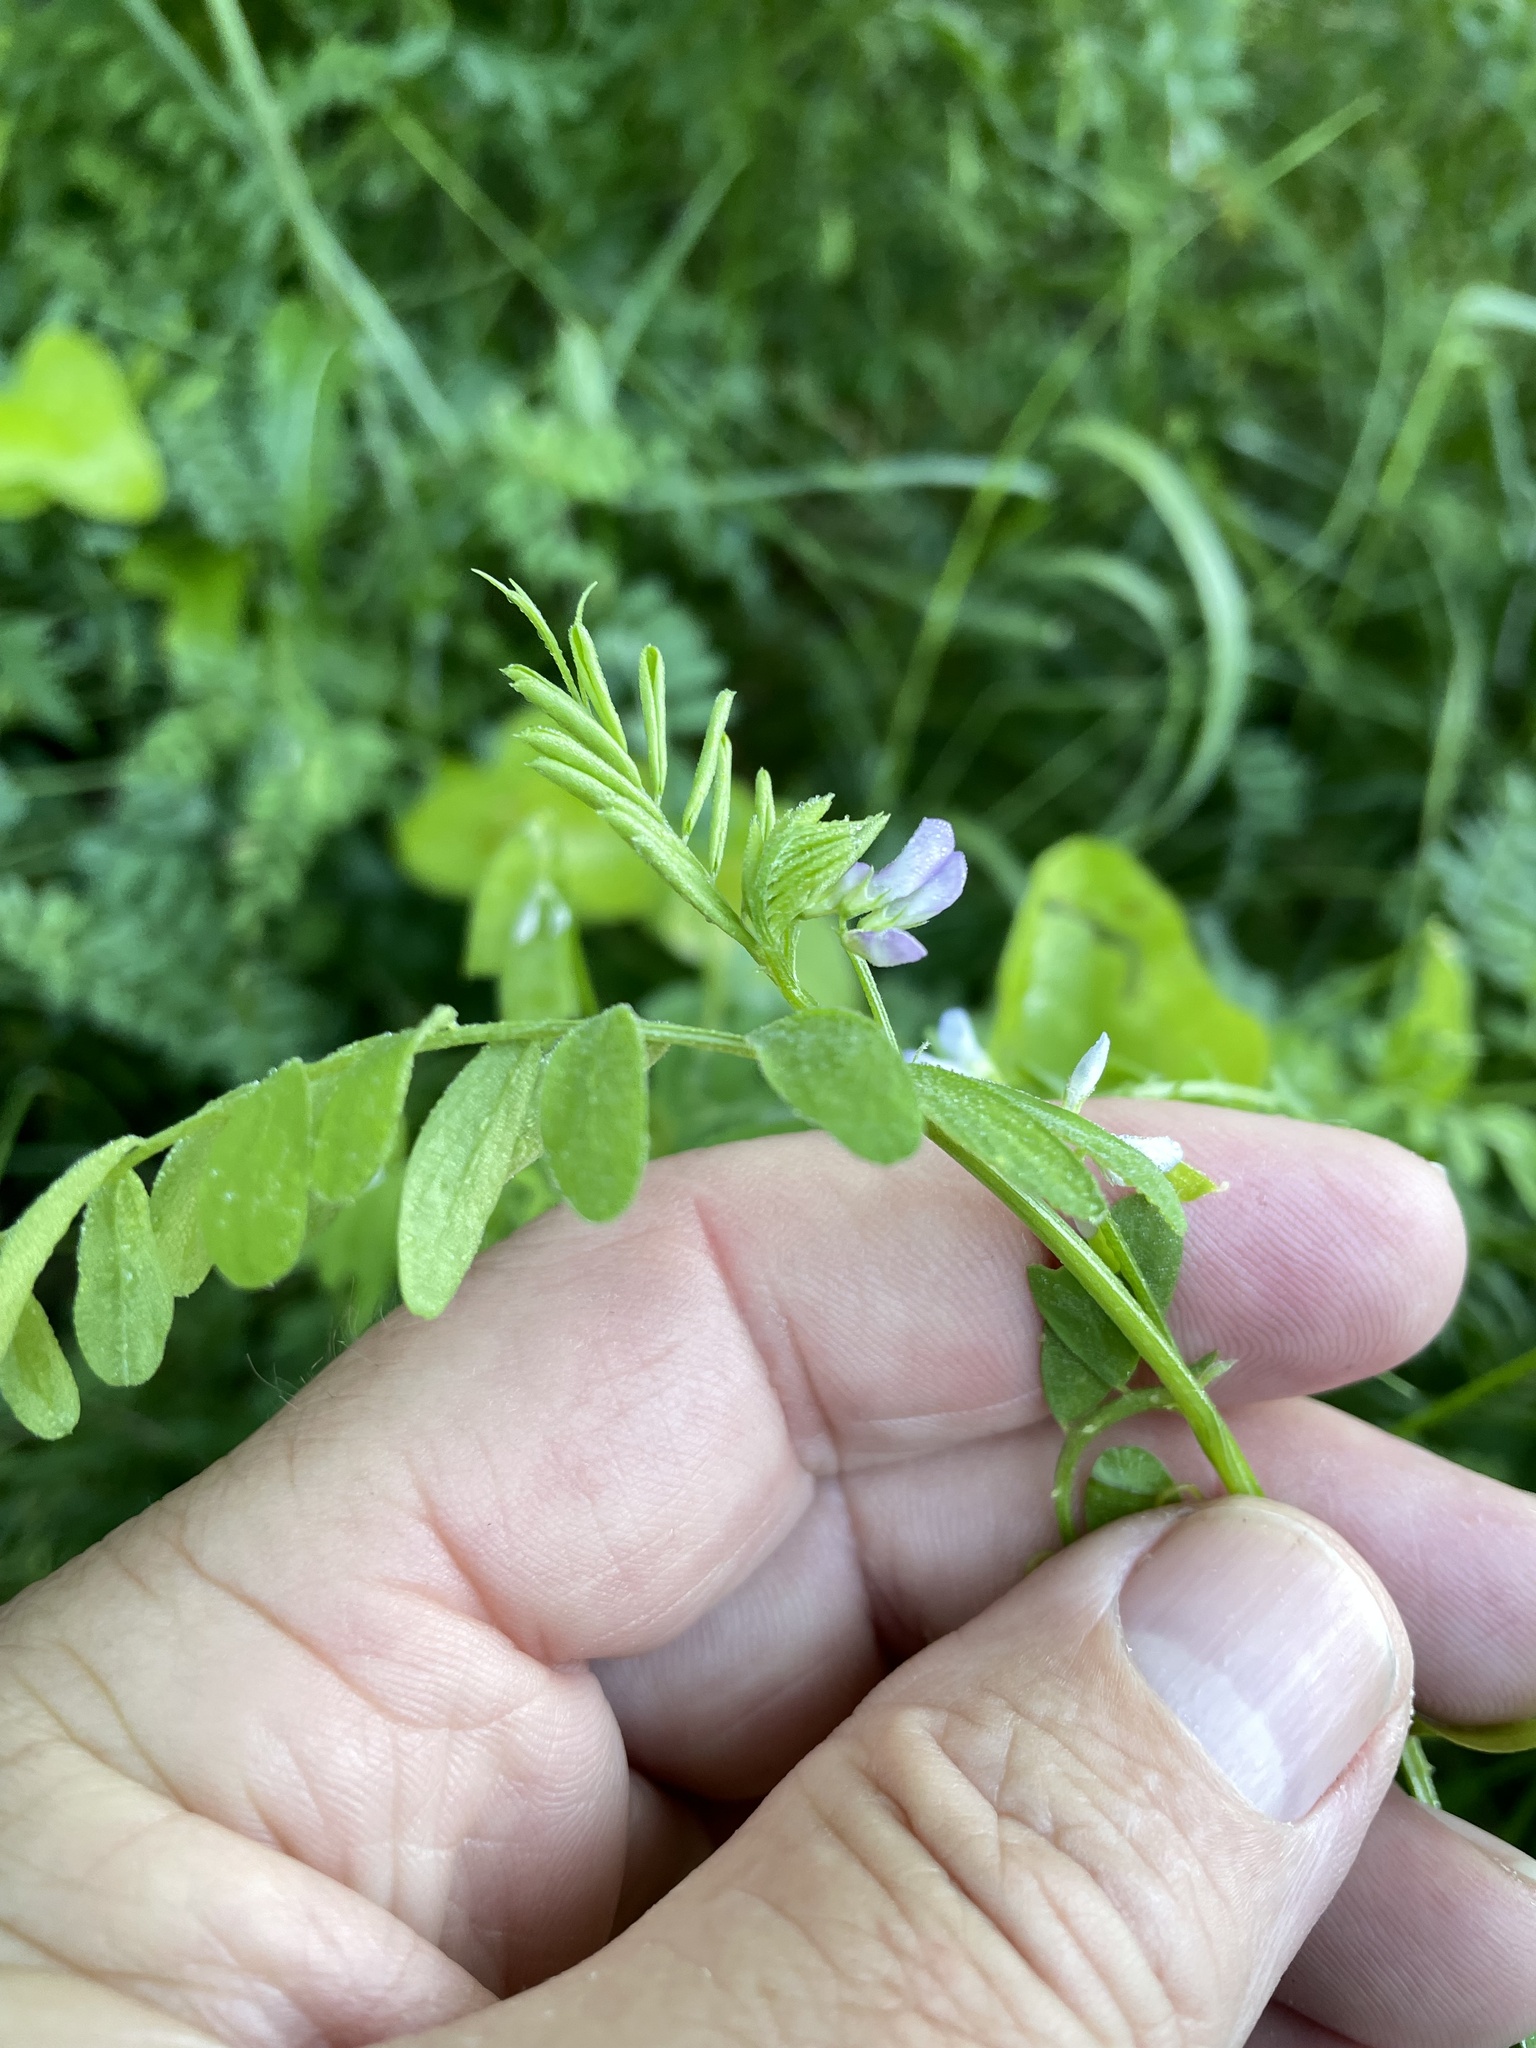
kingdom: Plantae
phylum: Tracheophyta
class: Magnoliopsida
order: Fabales
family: Fabaceae
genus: Vicia
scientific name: Vicia ludoviciana
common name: Louisiana vetch
